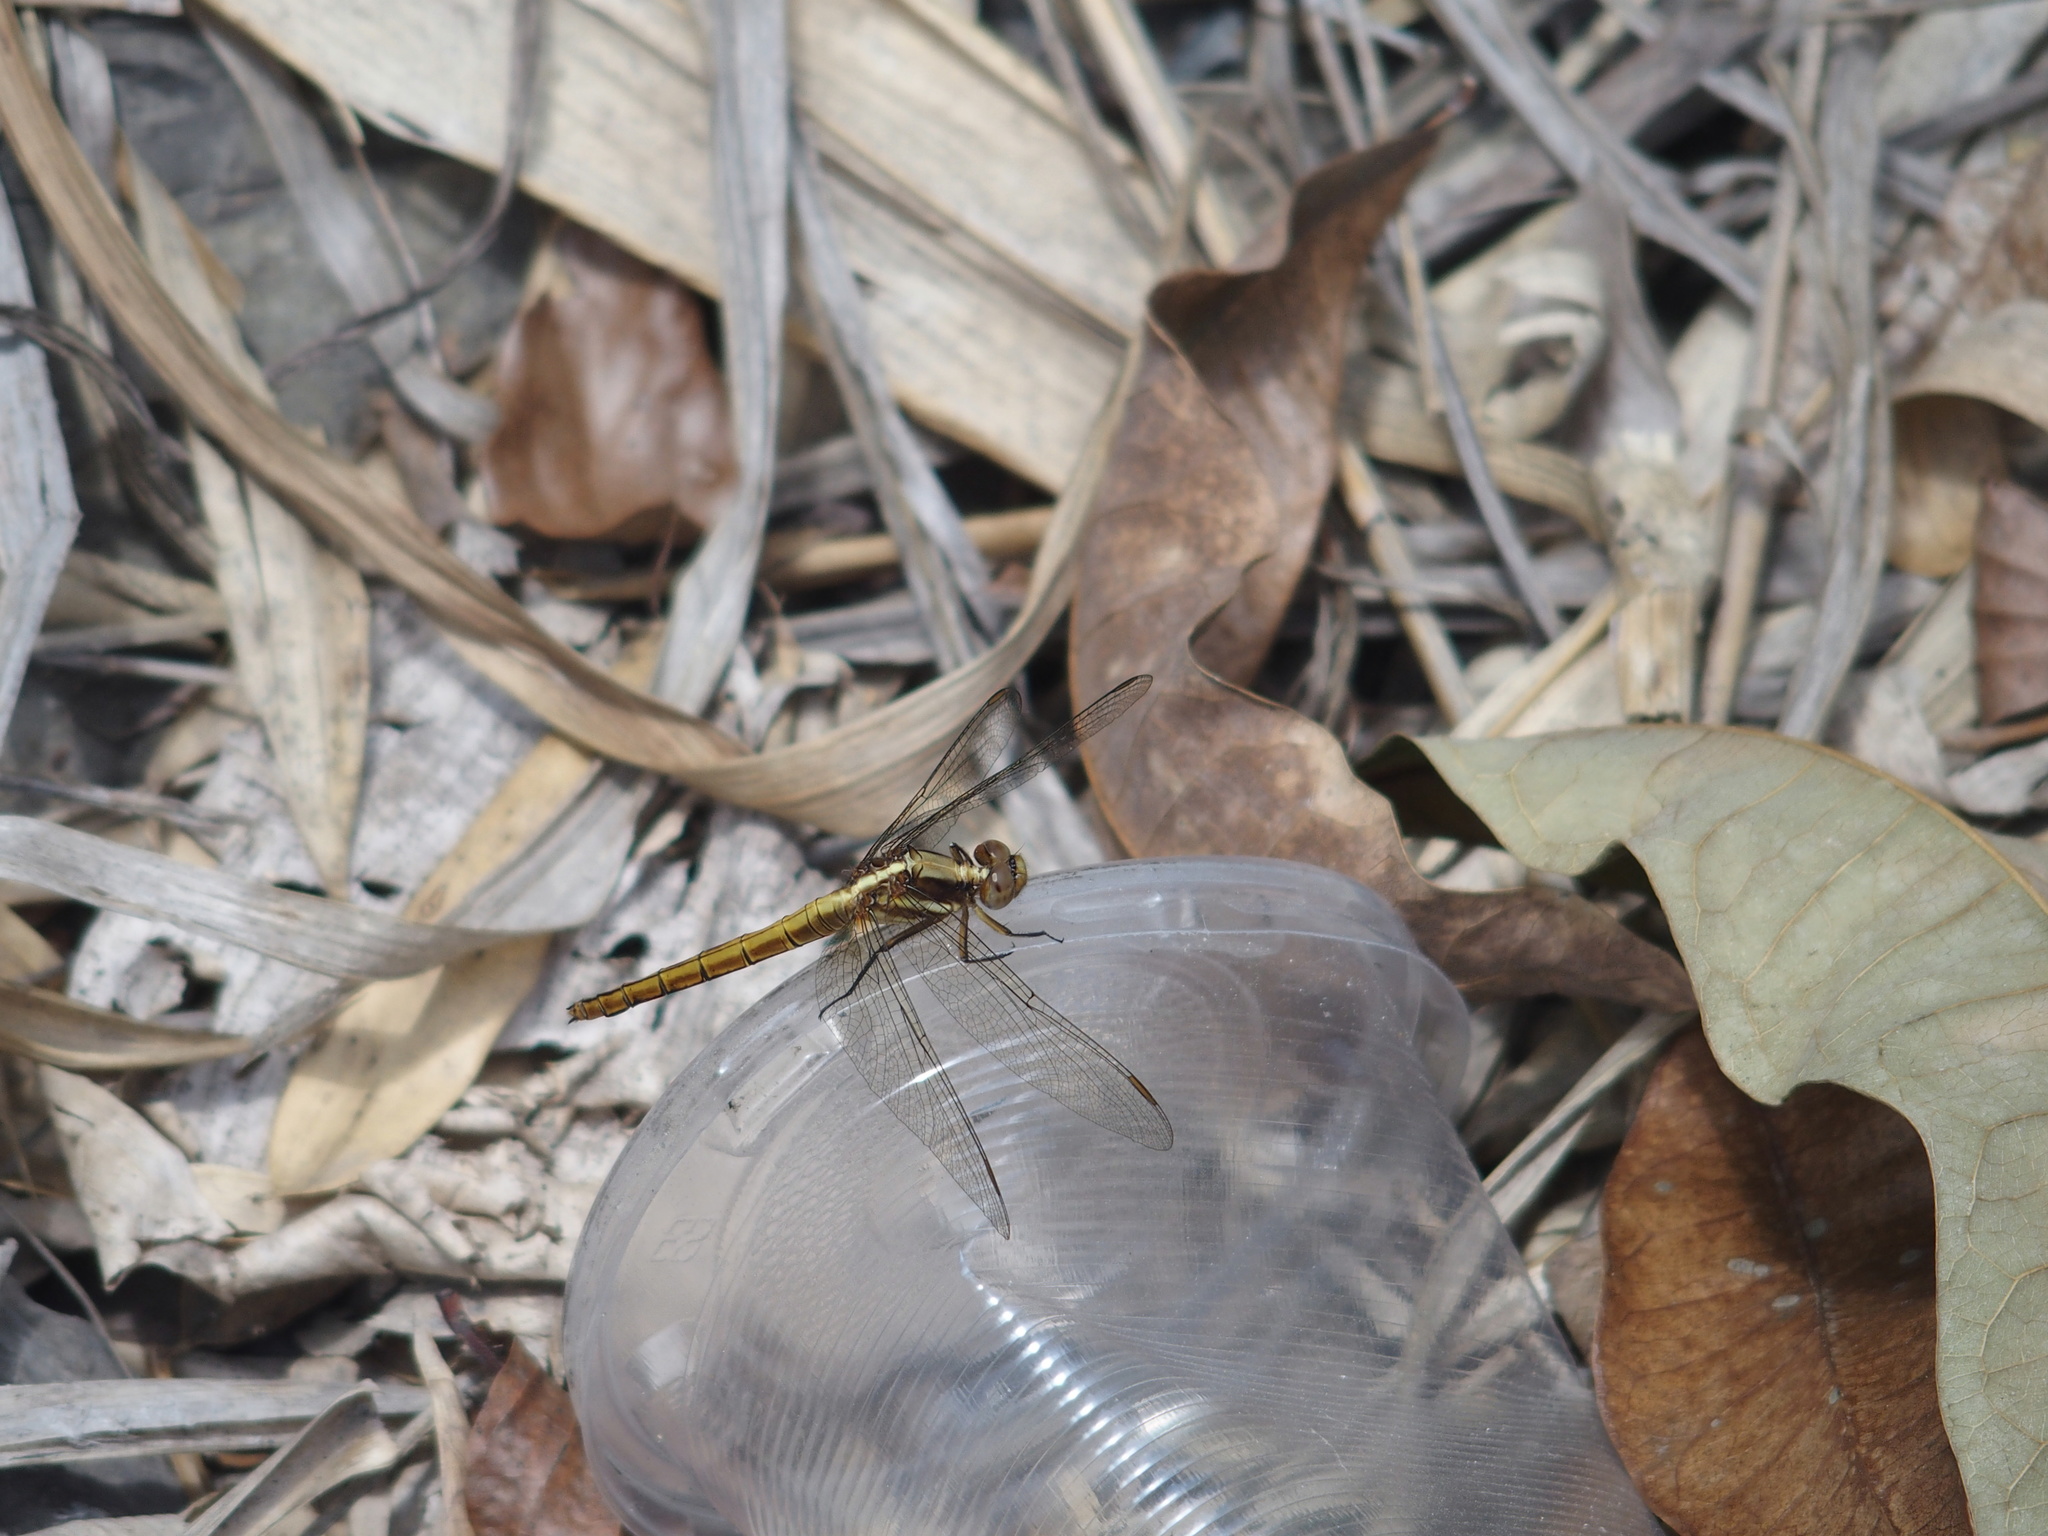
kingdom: Animalia
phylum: Arthropoda
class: Insecta
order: Odonata
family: Libellulidae
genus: Orthetrum
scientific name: Orthetrum glaucum
